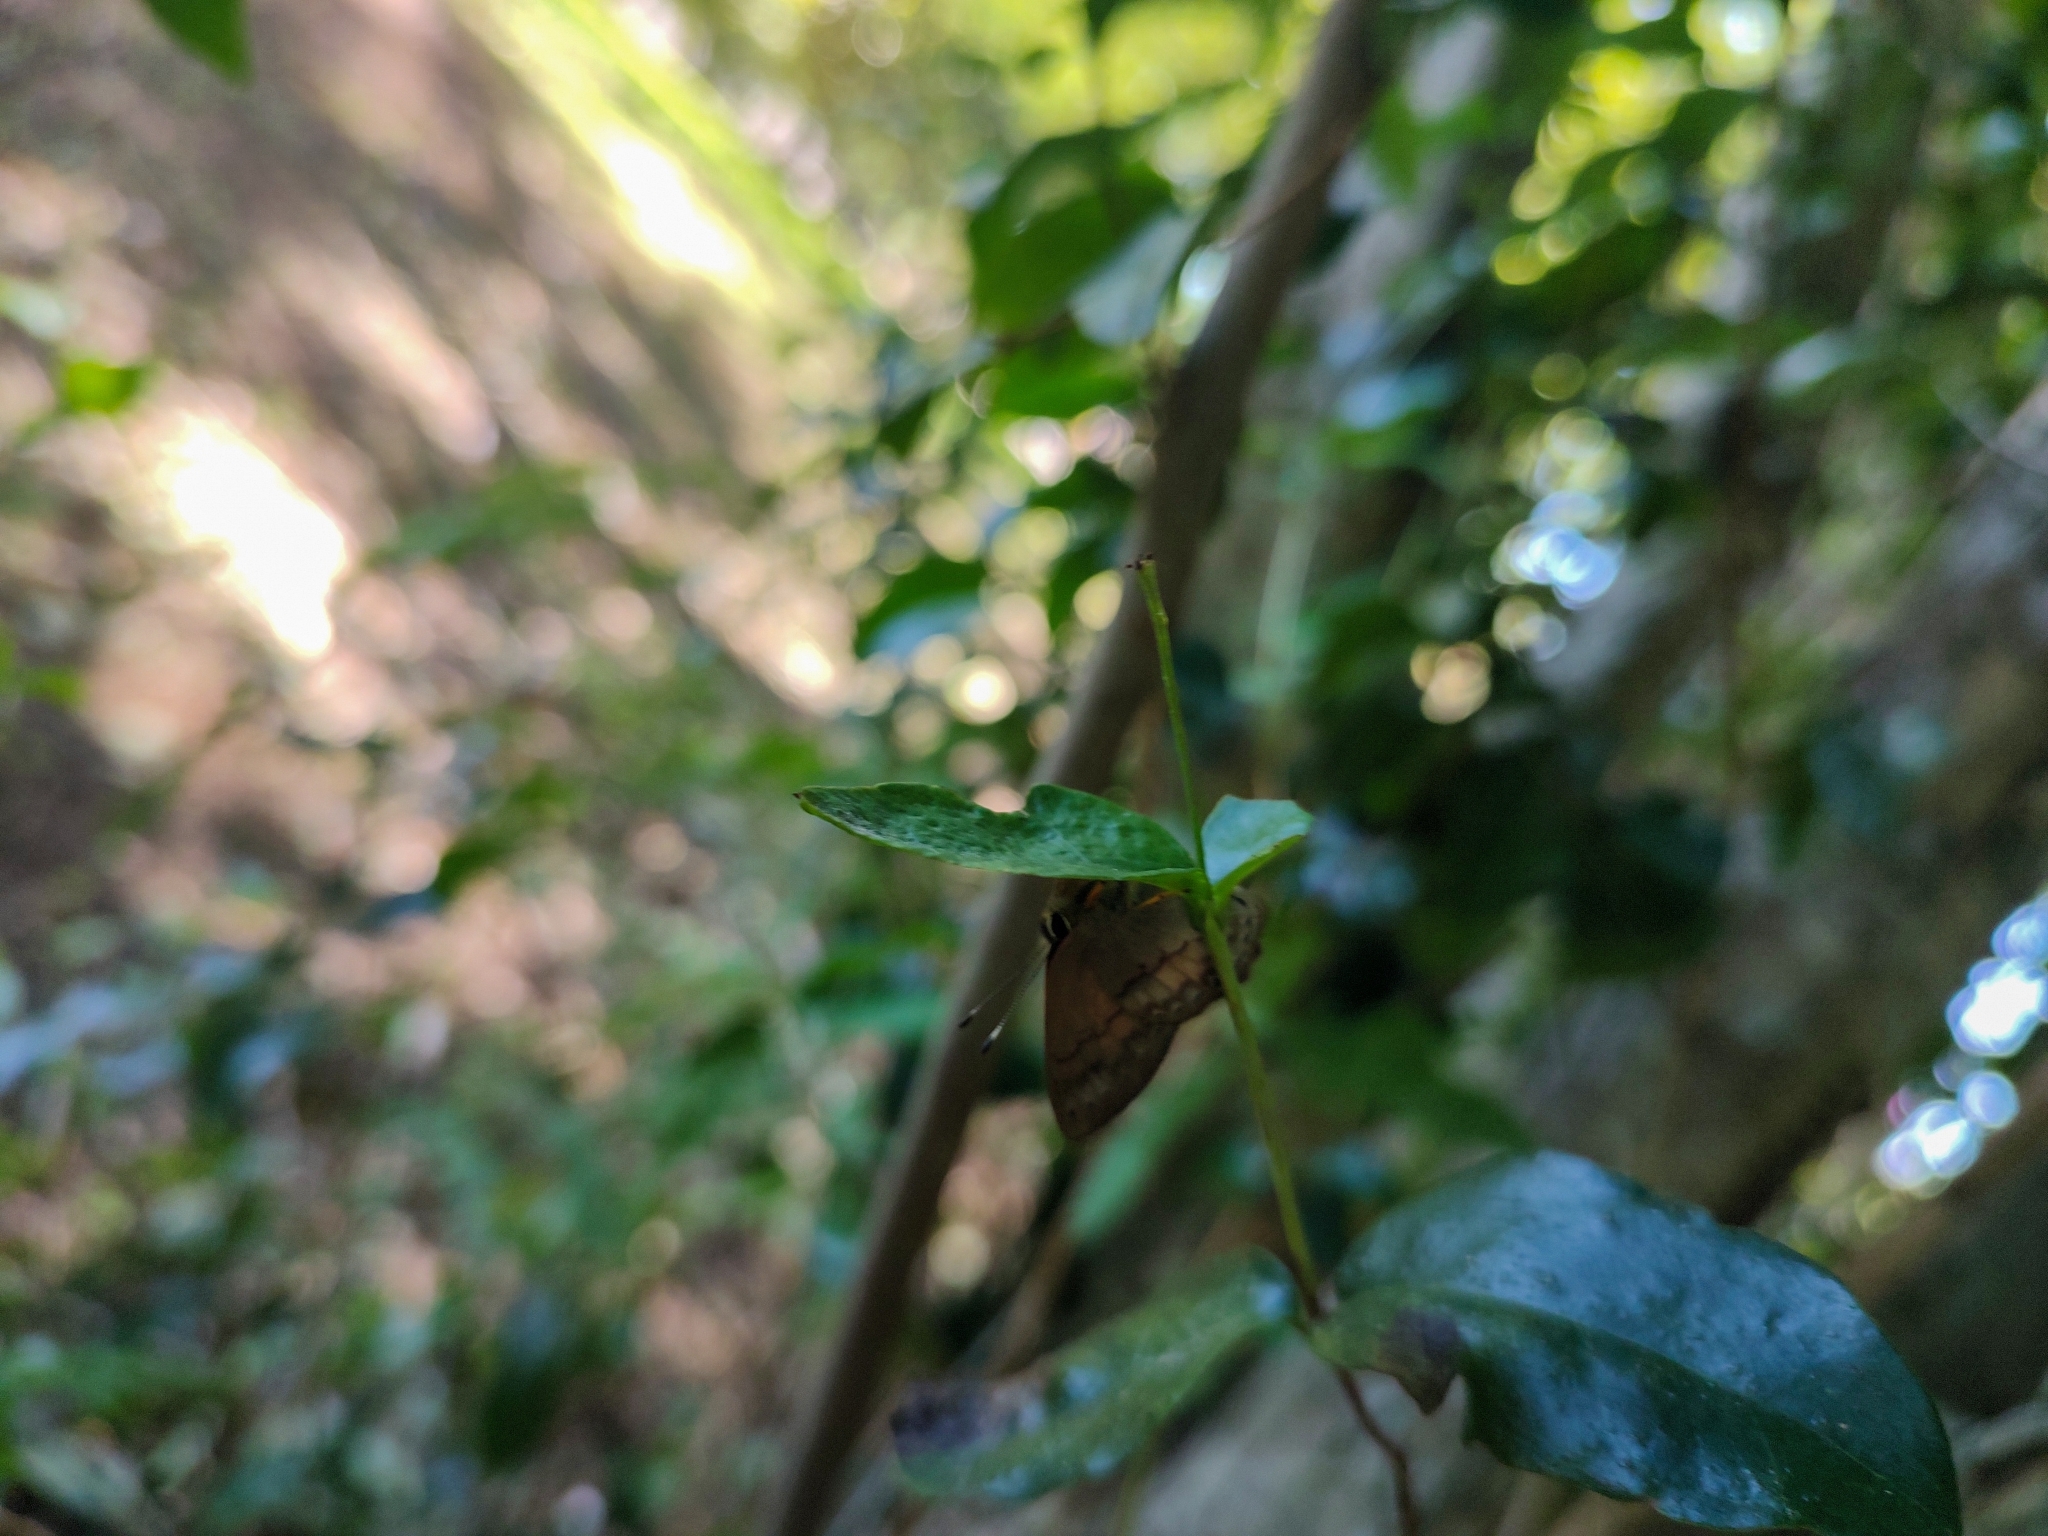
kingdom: Animalia
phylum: Arthropoda
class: Insecta
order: Lepidoptera
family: Lycaenidae
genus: Euselasia
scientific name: Euselasia eucerus
